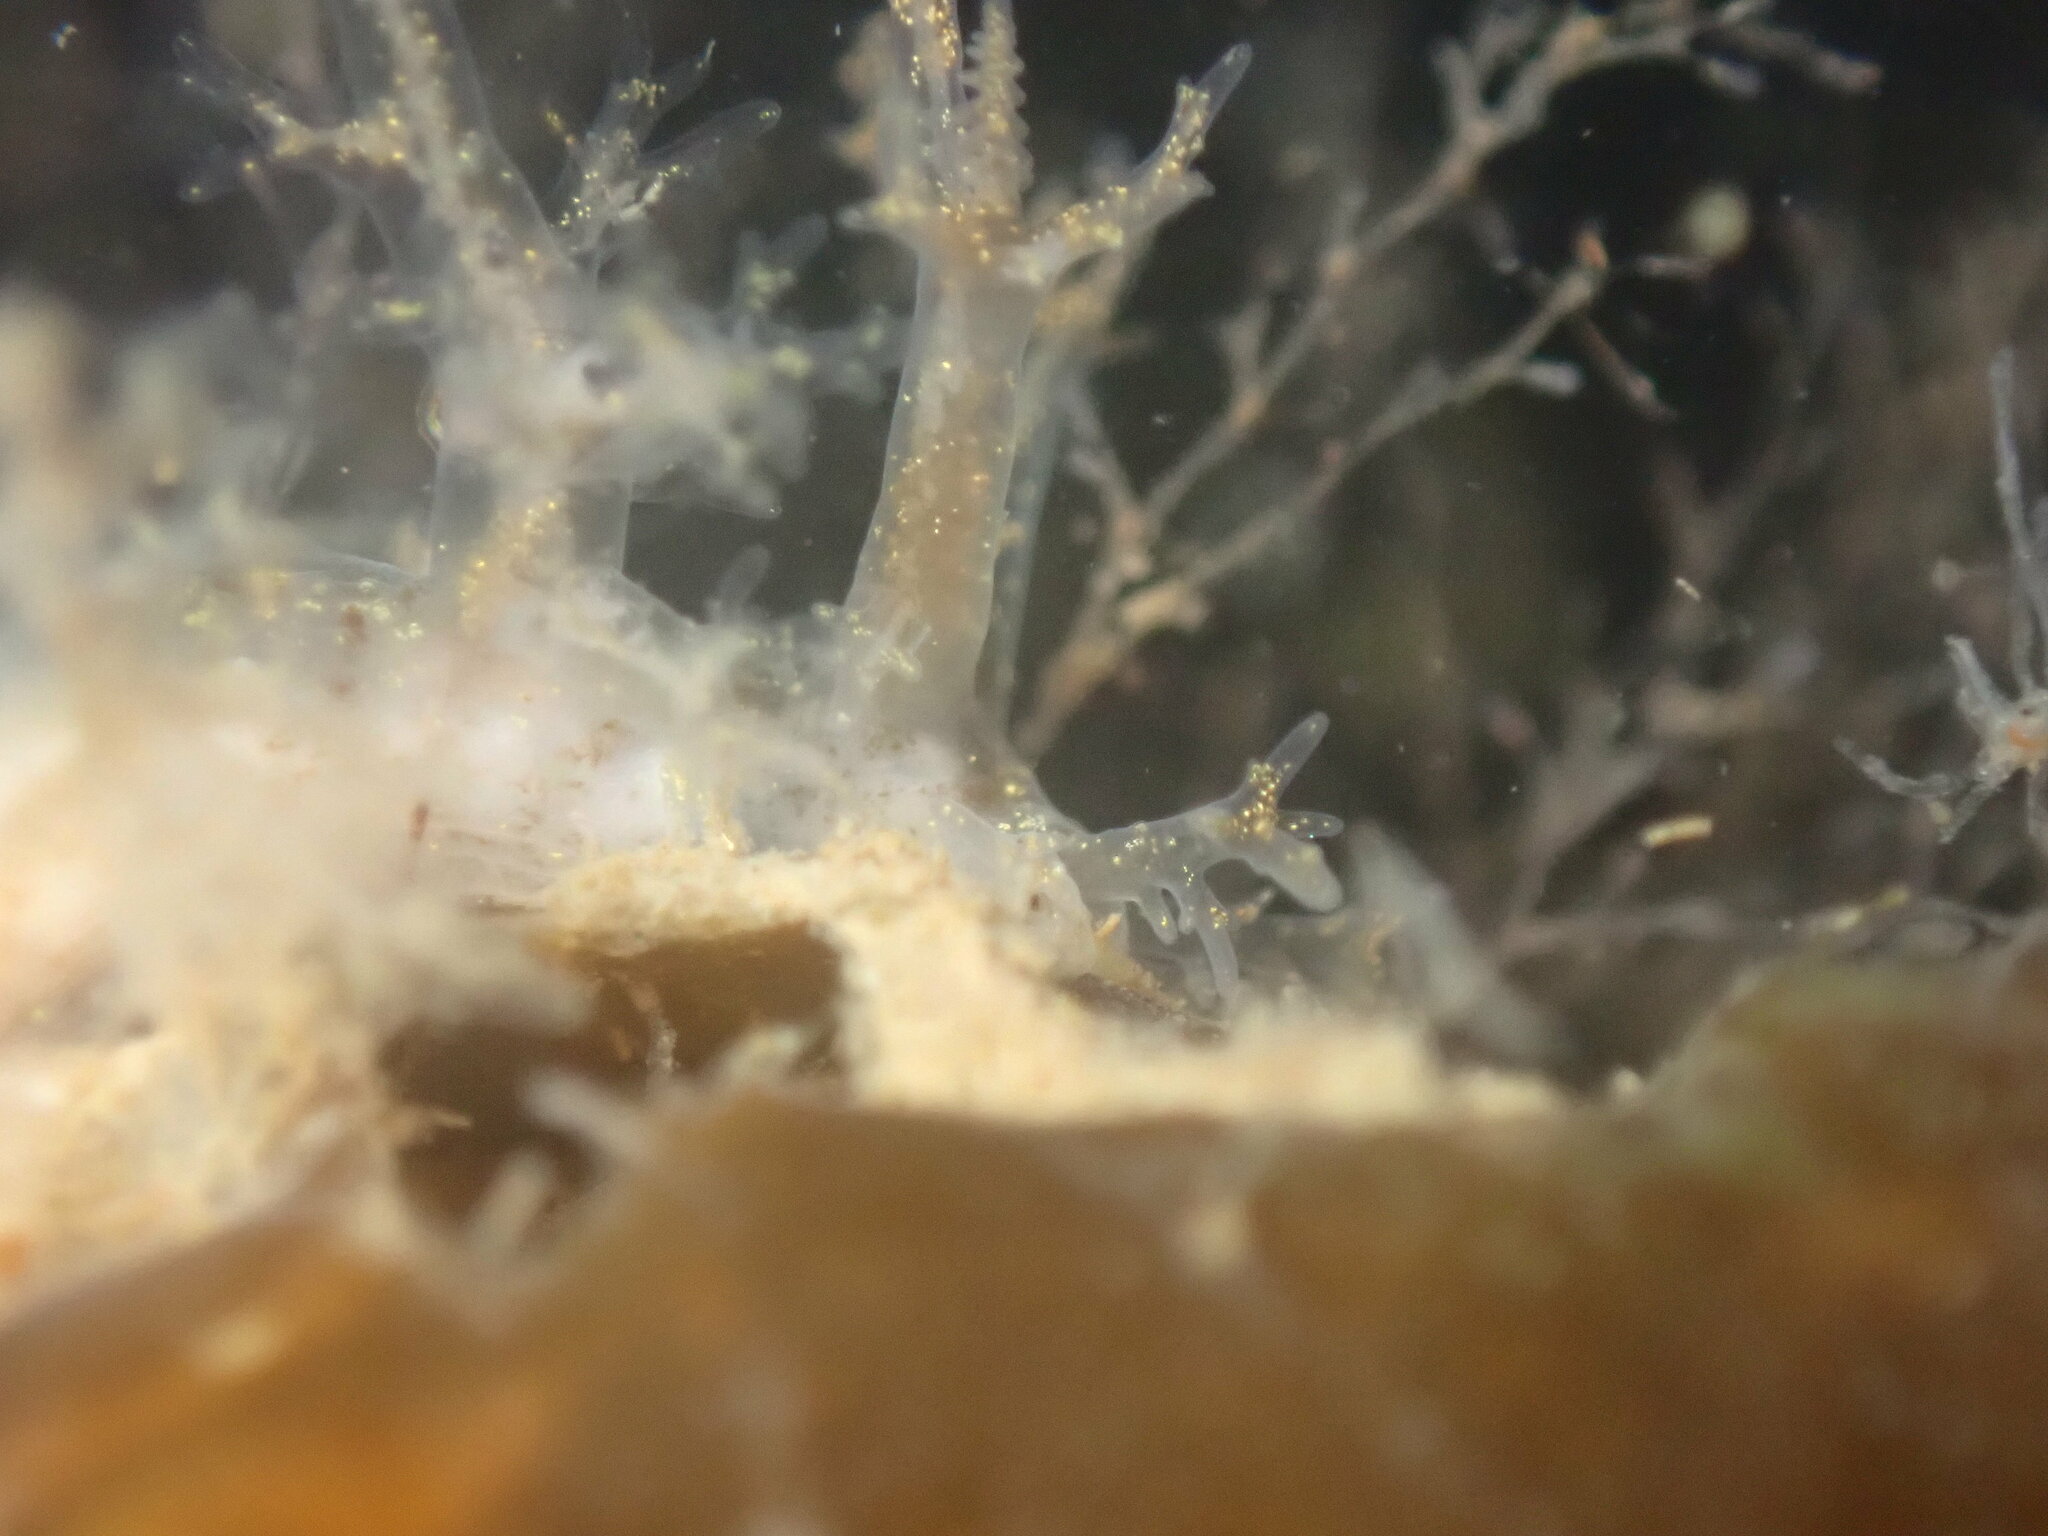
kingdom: Animalia
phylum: Mollusca
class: Gastropoda
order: Nudibranchia
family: Dendronotidae
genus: Dendronotus
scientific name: Dendronotus venustus
